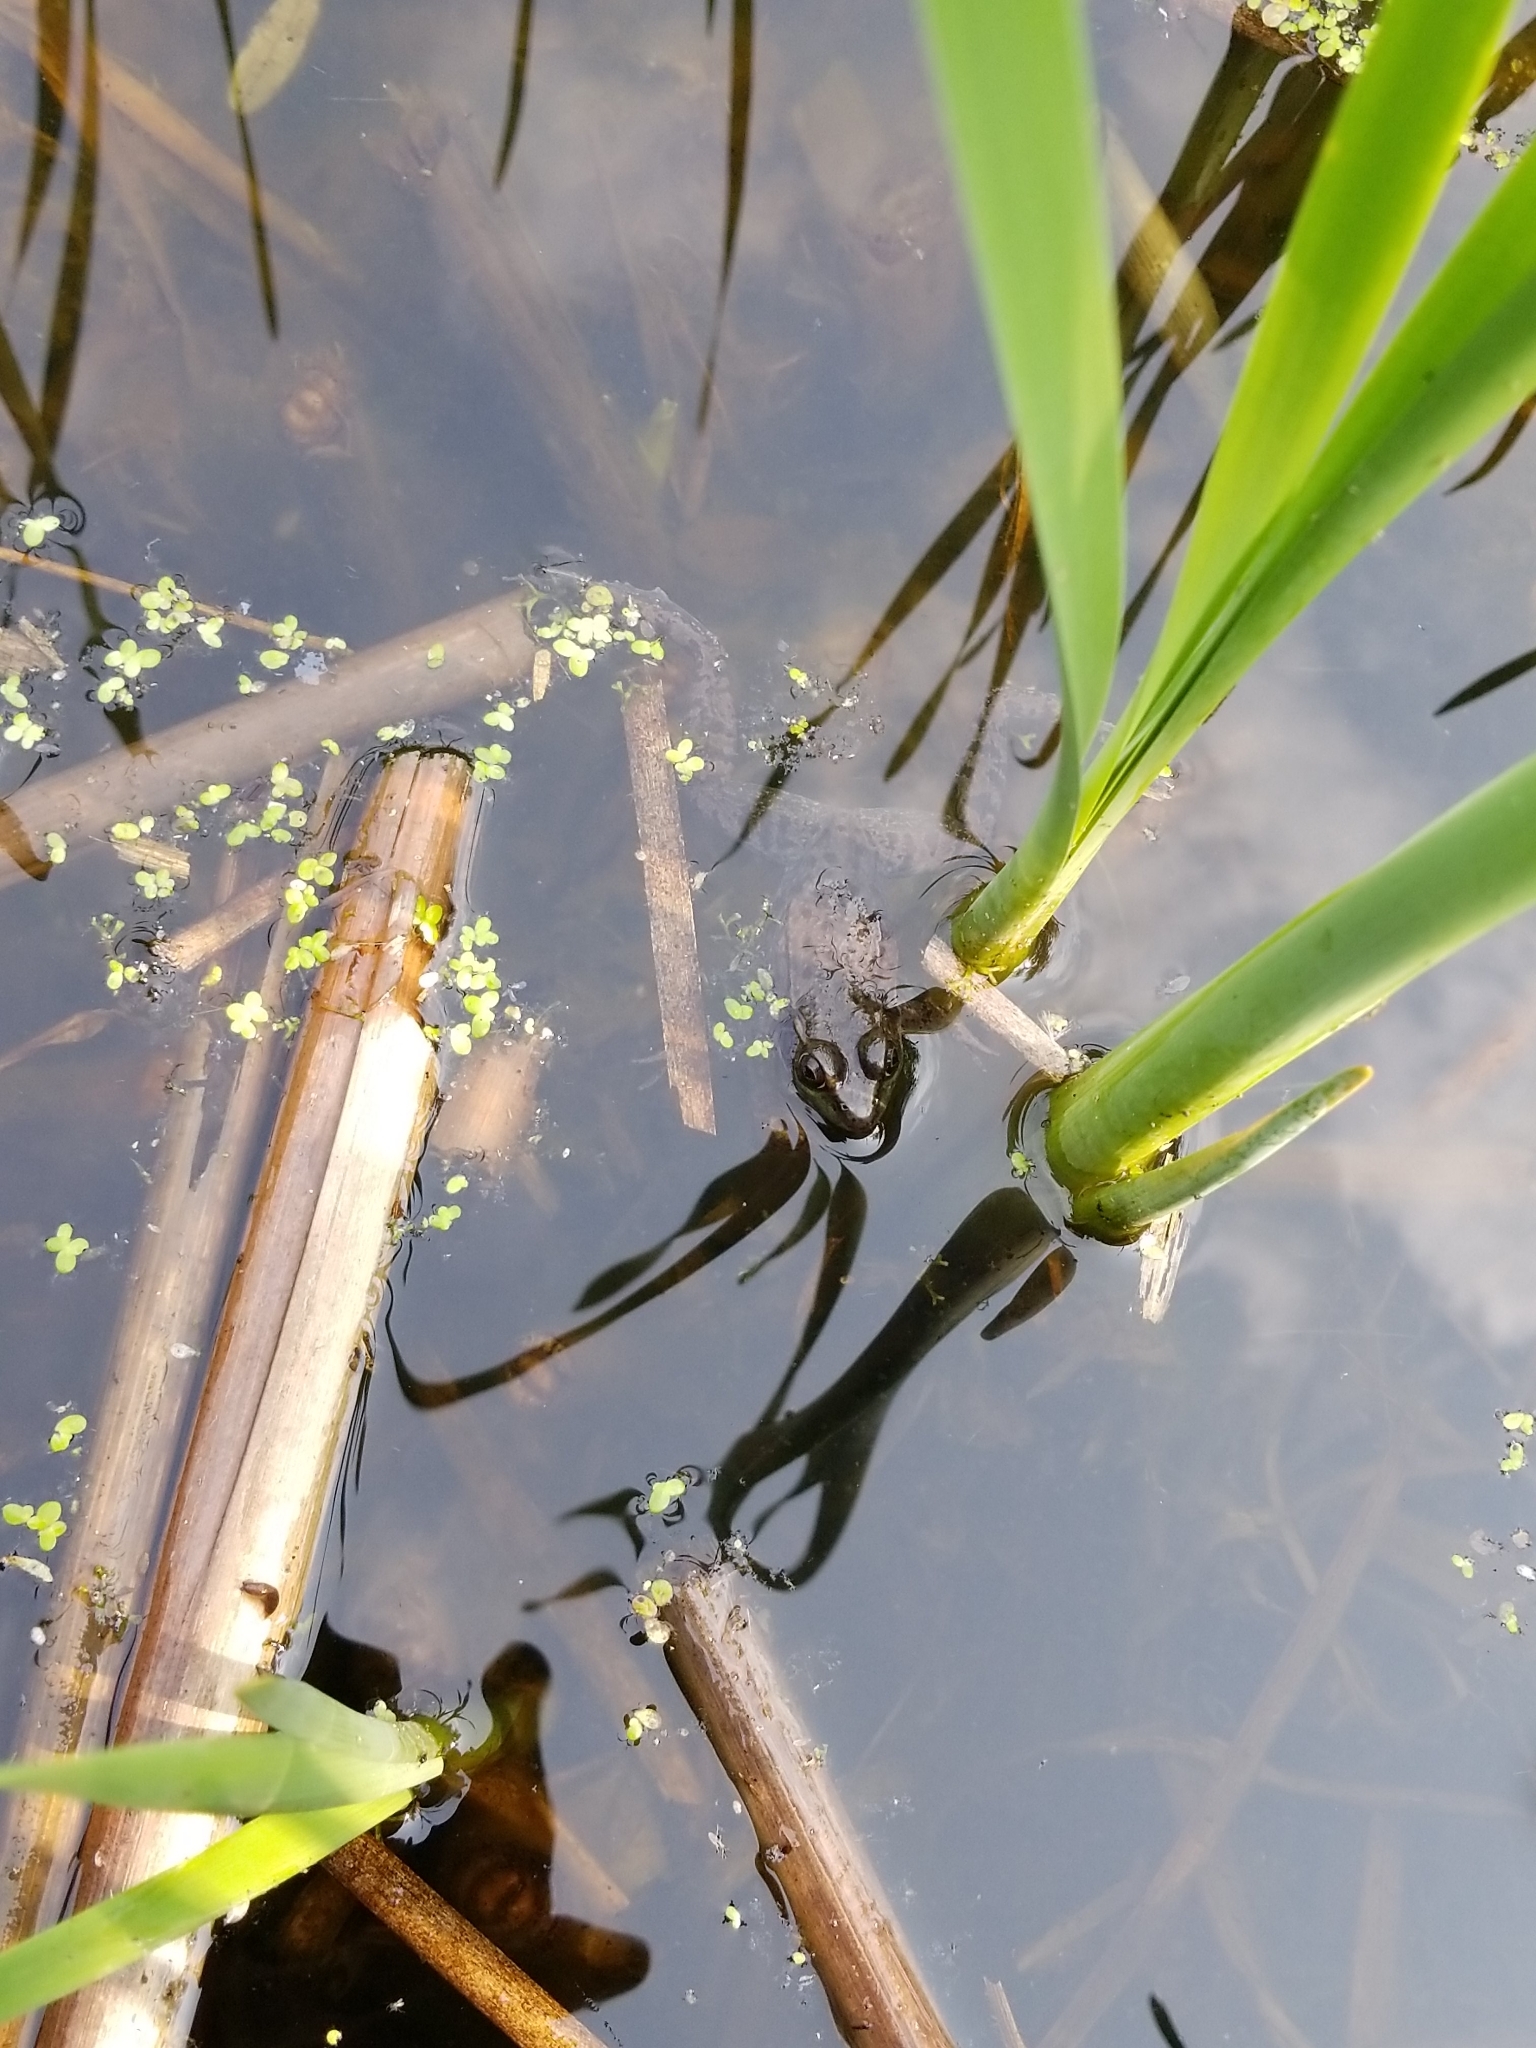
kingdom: Animalia
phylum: Chordata
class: Amphibia
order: Anura
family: Ranidae
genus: Lithobates
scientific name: Lithobates clamitans
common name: Green frog
